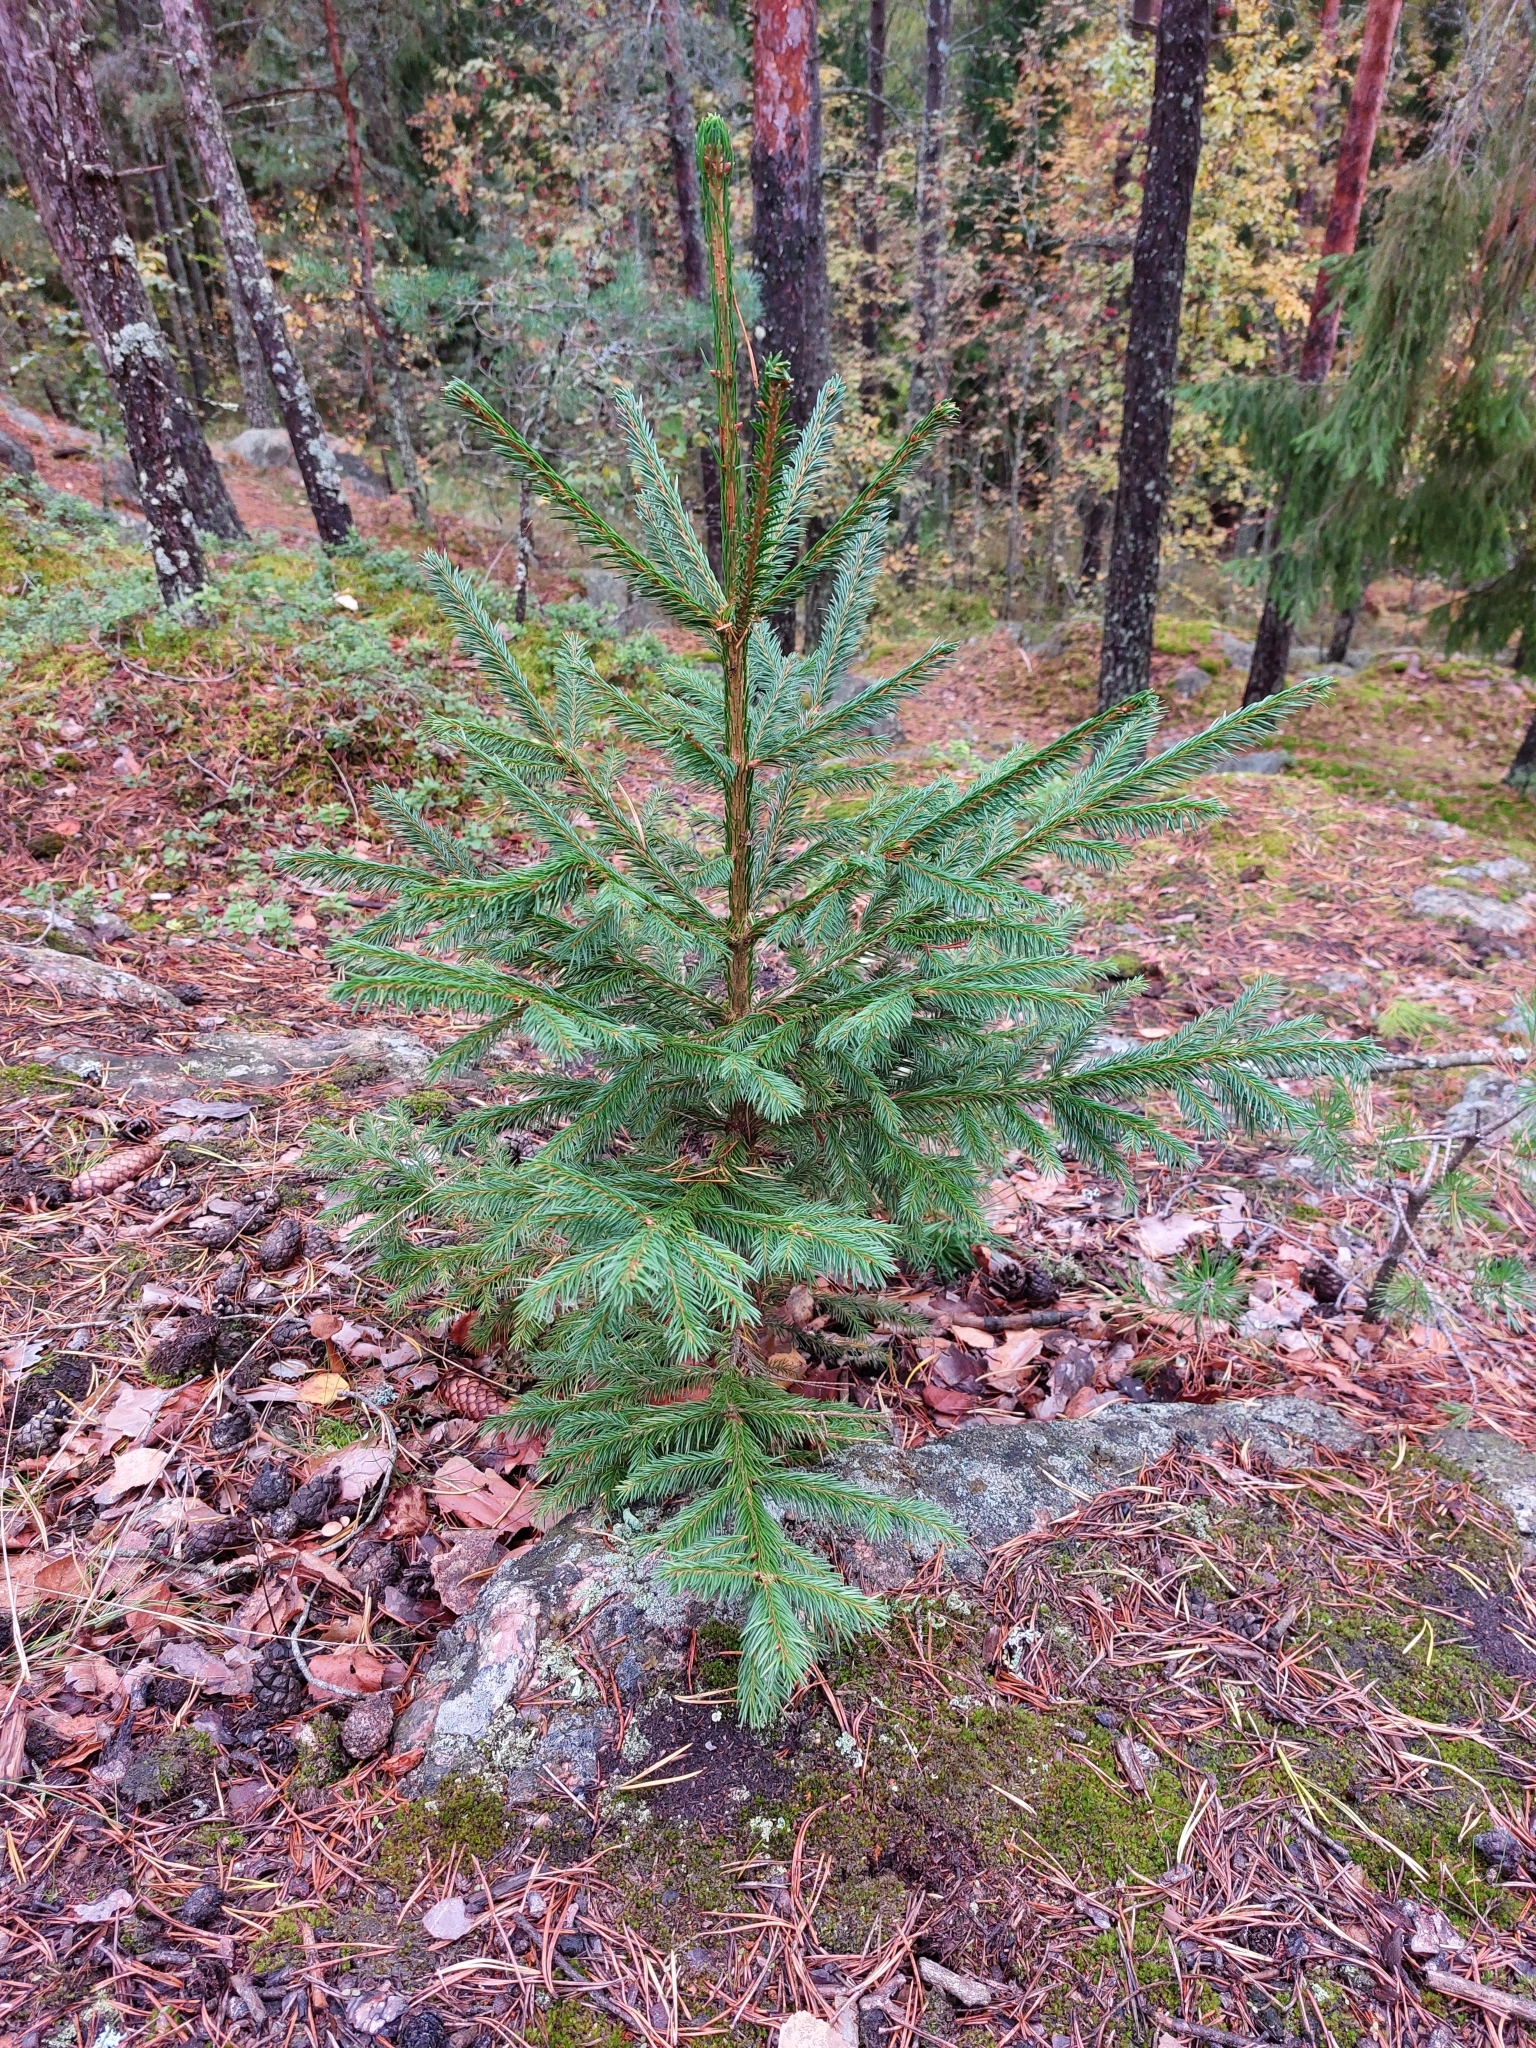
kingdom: Plantae
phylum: Tracheophyta
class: Pinopsida
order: Pinales
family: Pinaceae
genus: Picea
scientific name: Picea abies
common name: Norway spruce
